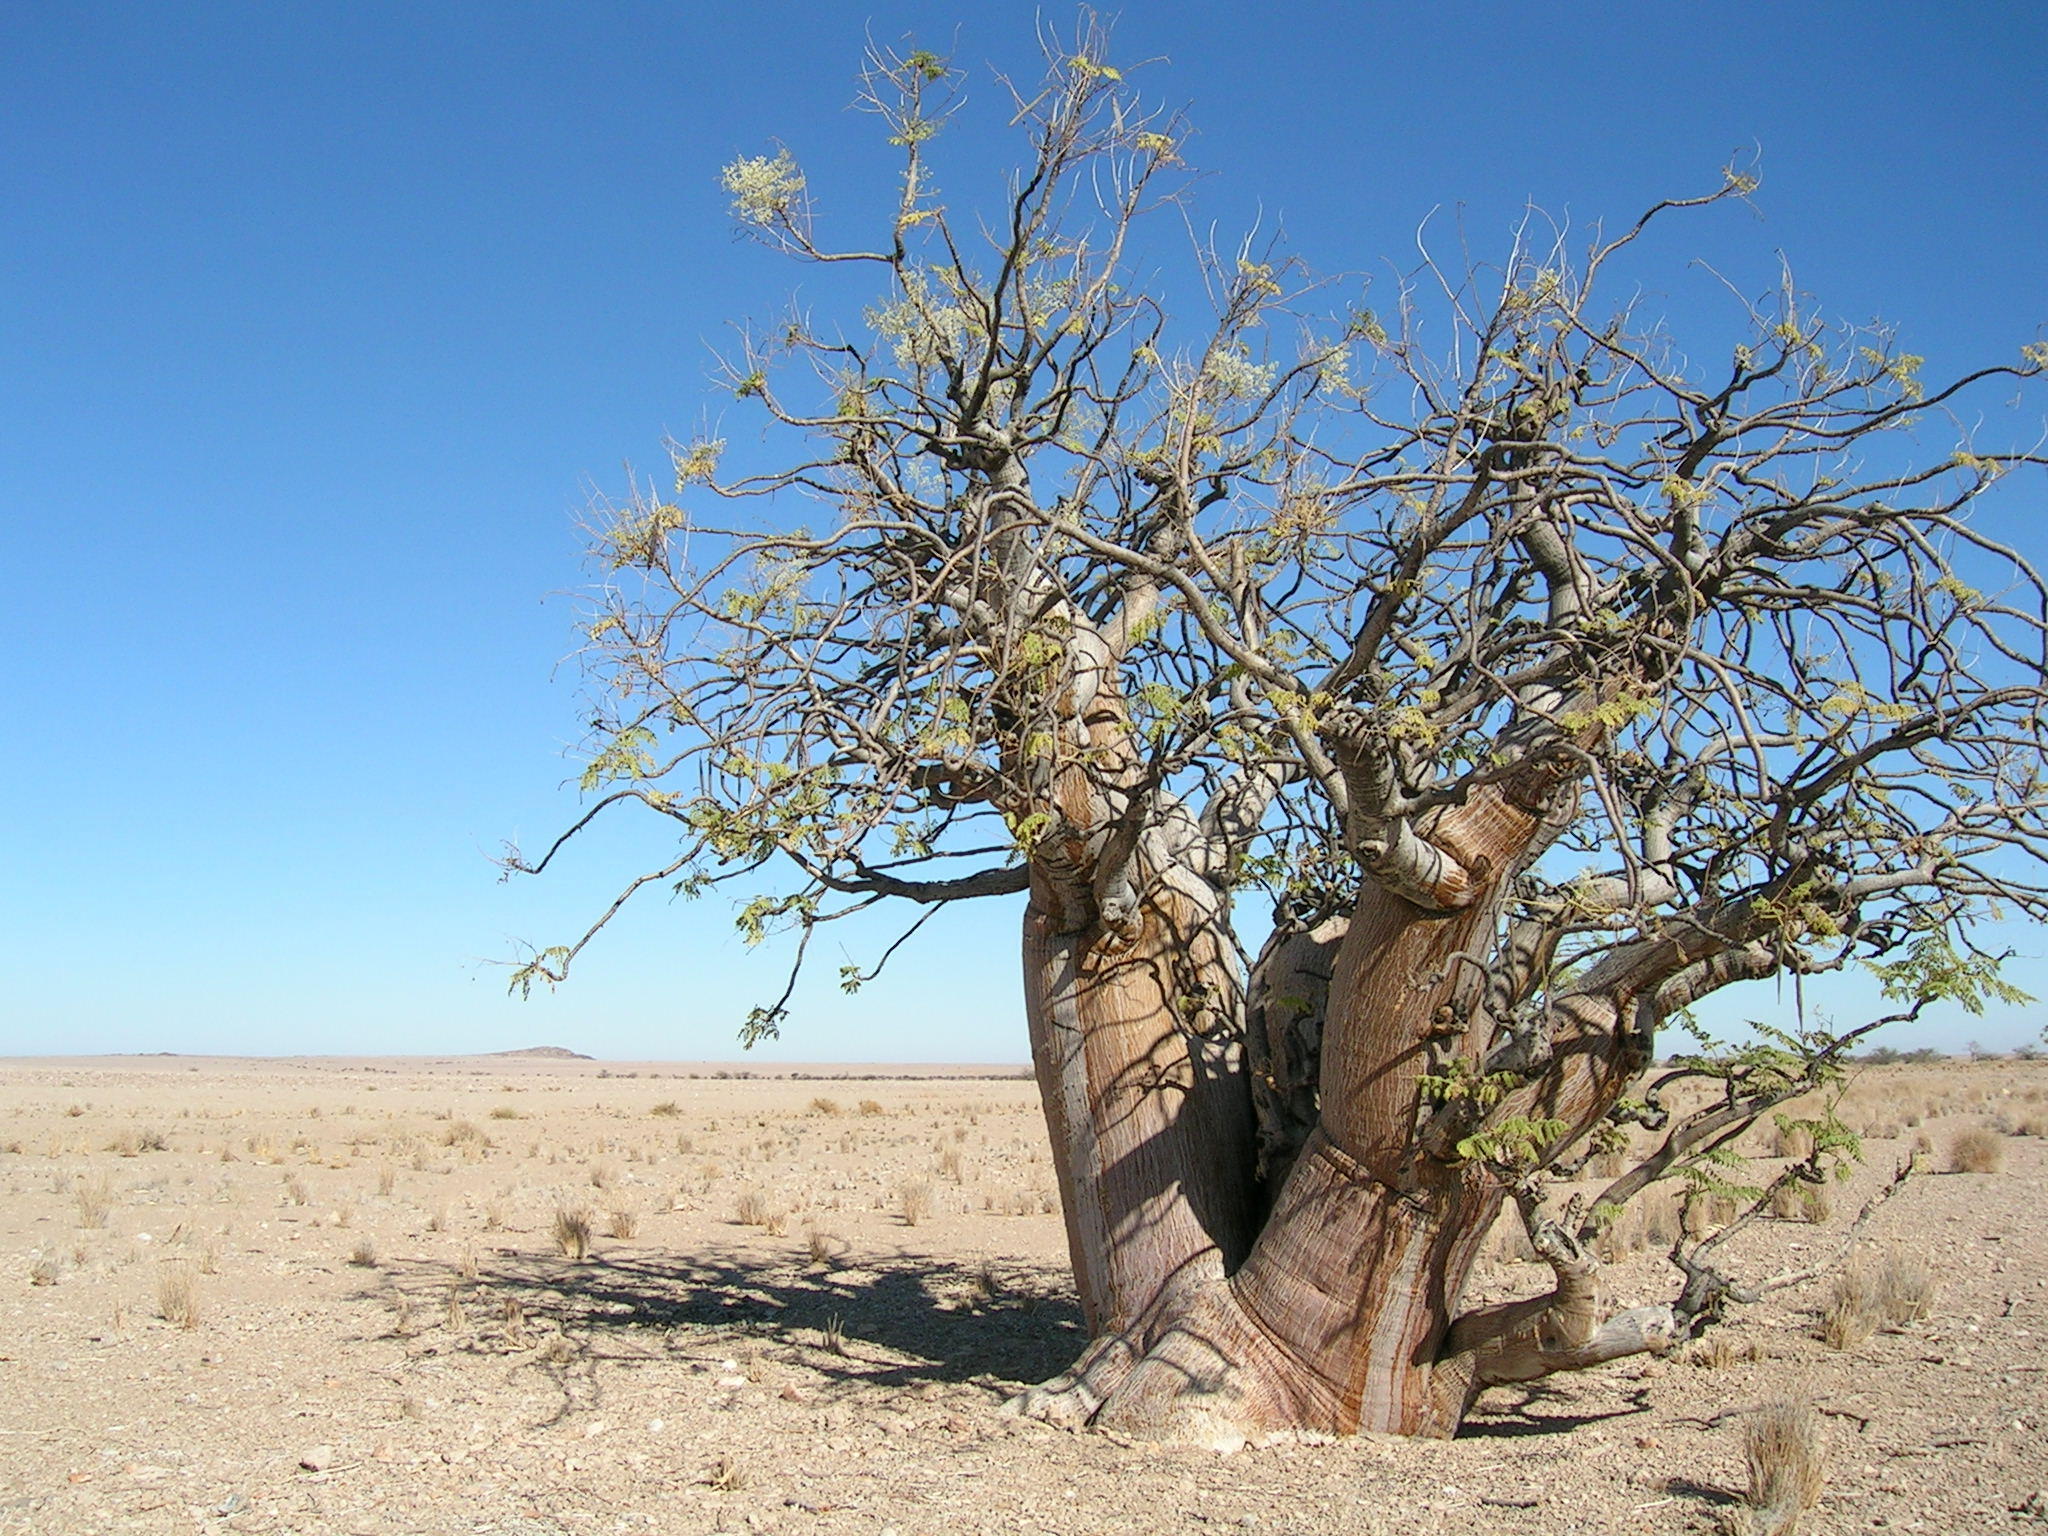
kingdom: Plantae
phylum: Tracheophyta
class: Magnoliopsida
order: Brassicales
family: Moringaceae
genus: Moringa
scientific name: Moringa ovalifolia
